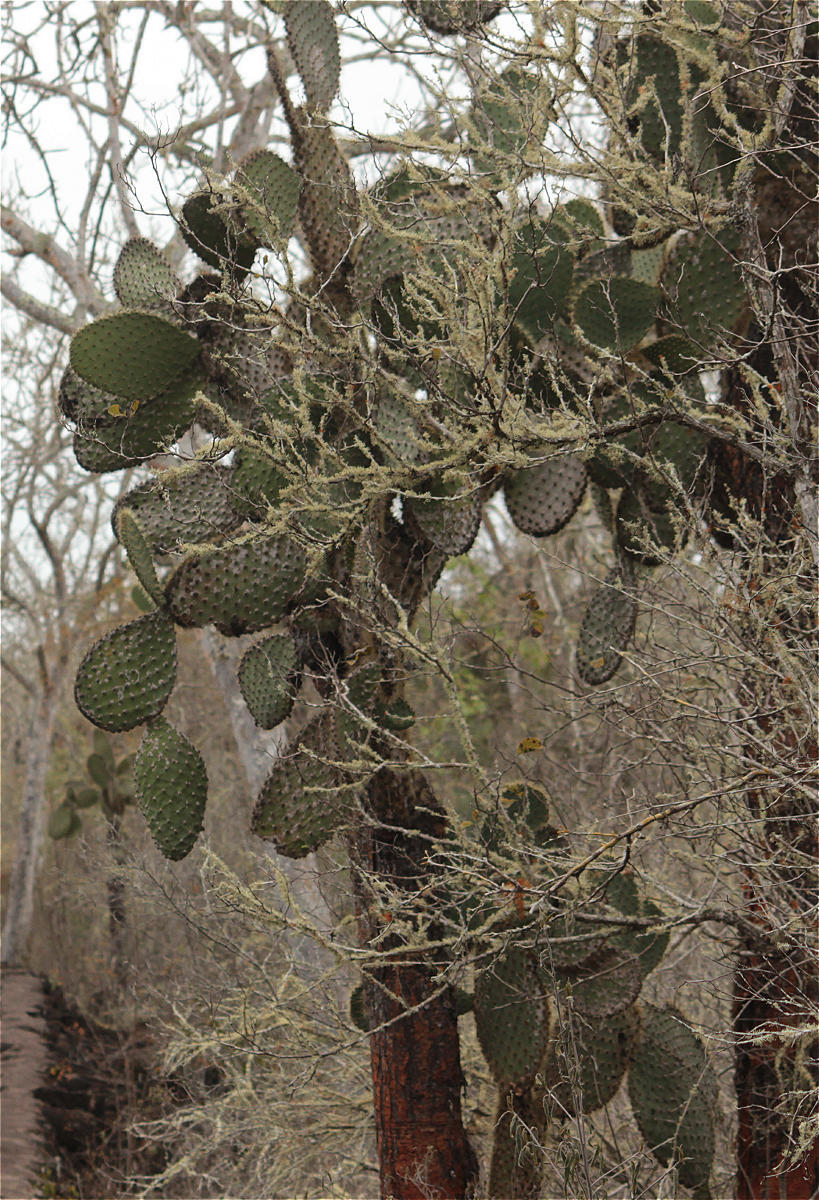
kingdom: Plantae
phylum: Tracheophyta
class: Magnoliopsida
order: Caryophyllales
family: Cactaceae
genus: Opuntia
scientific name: Opuntia galapageia
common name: Galápagos prickly pear
